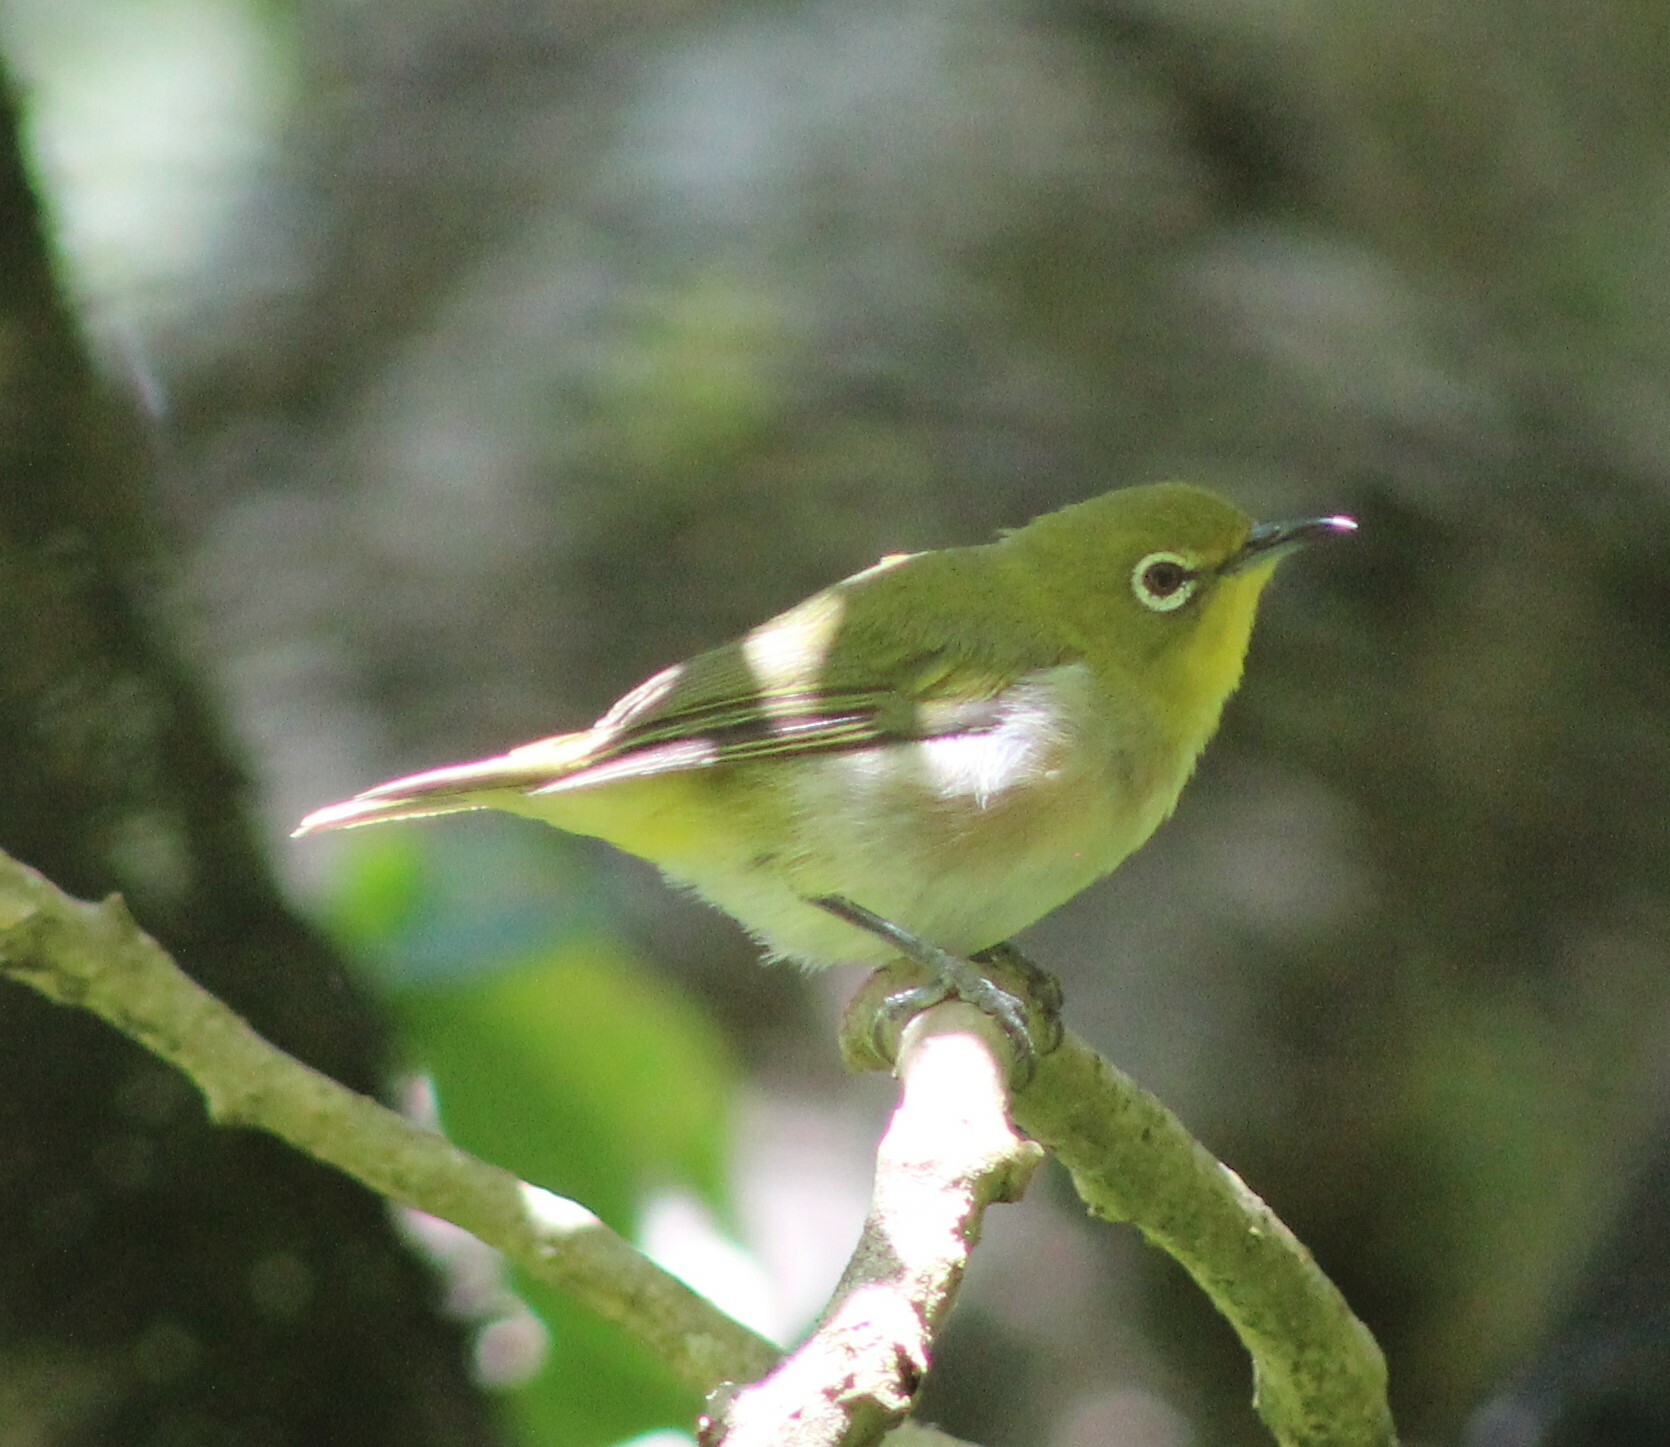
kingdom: Animalia
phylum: Chordata
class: Aves
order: Passeriformes
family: Zosteropidae
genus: Zosterops
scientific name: Zosterops japonicus
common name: Japanese white-eye
